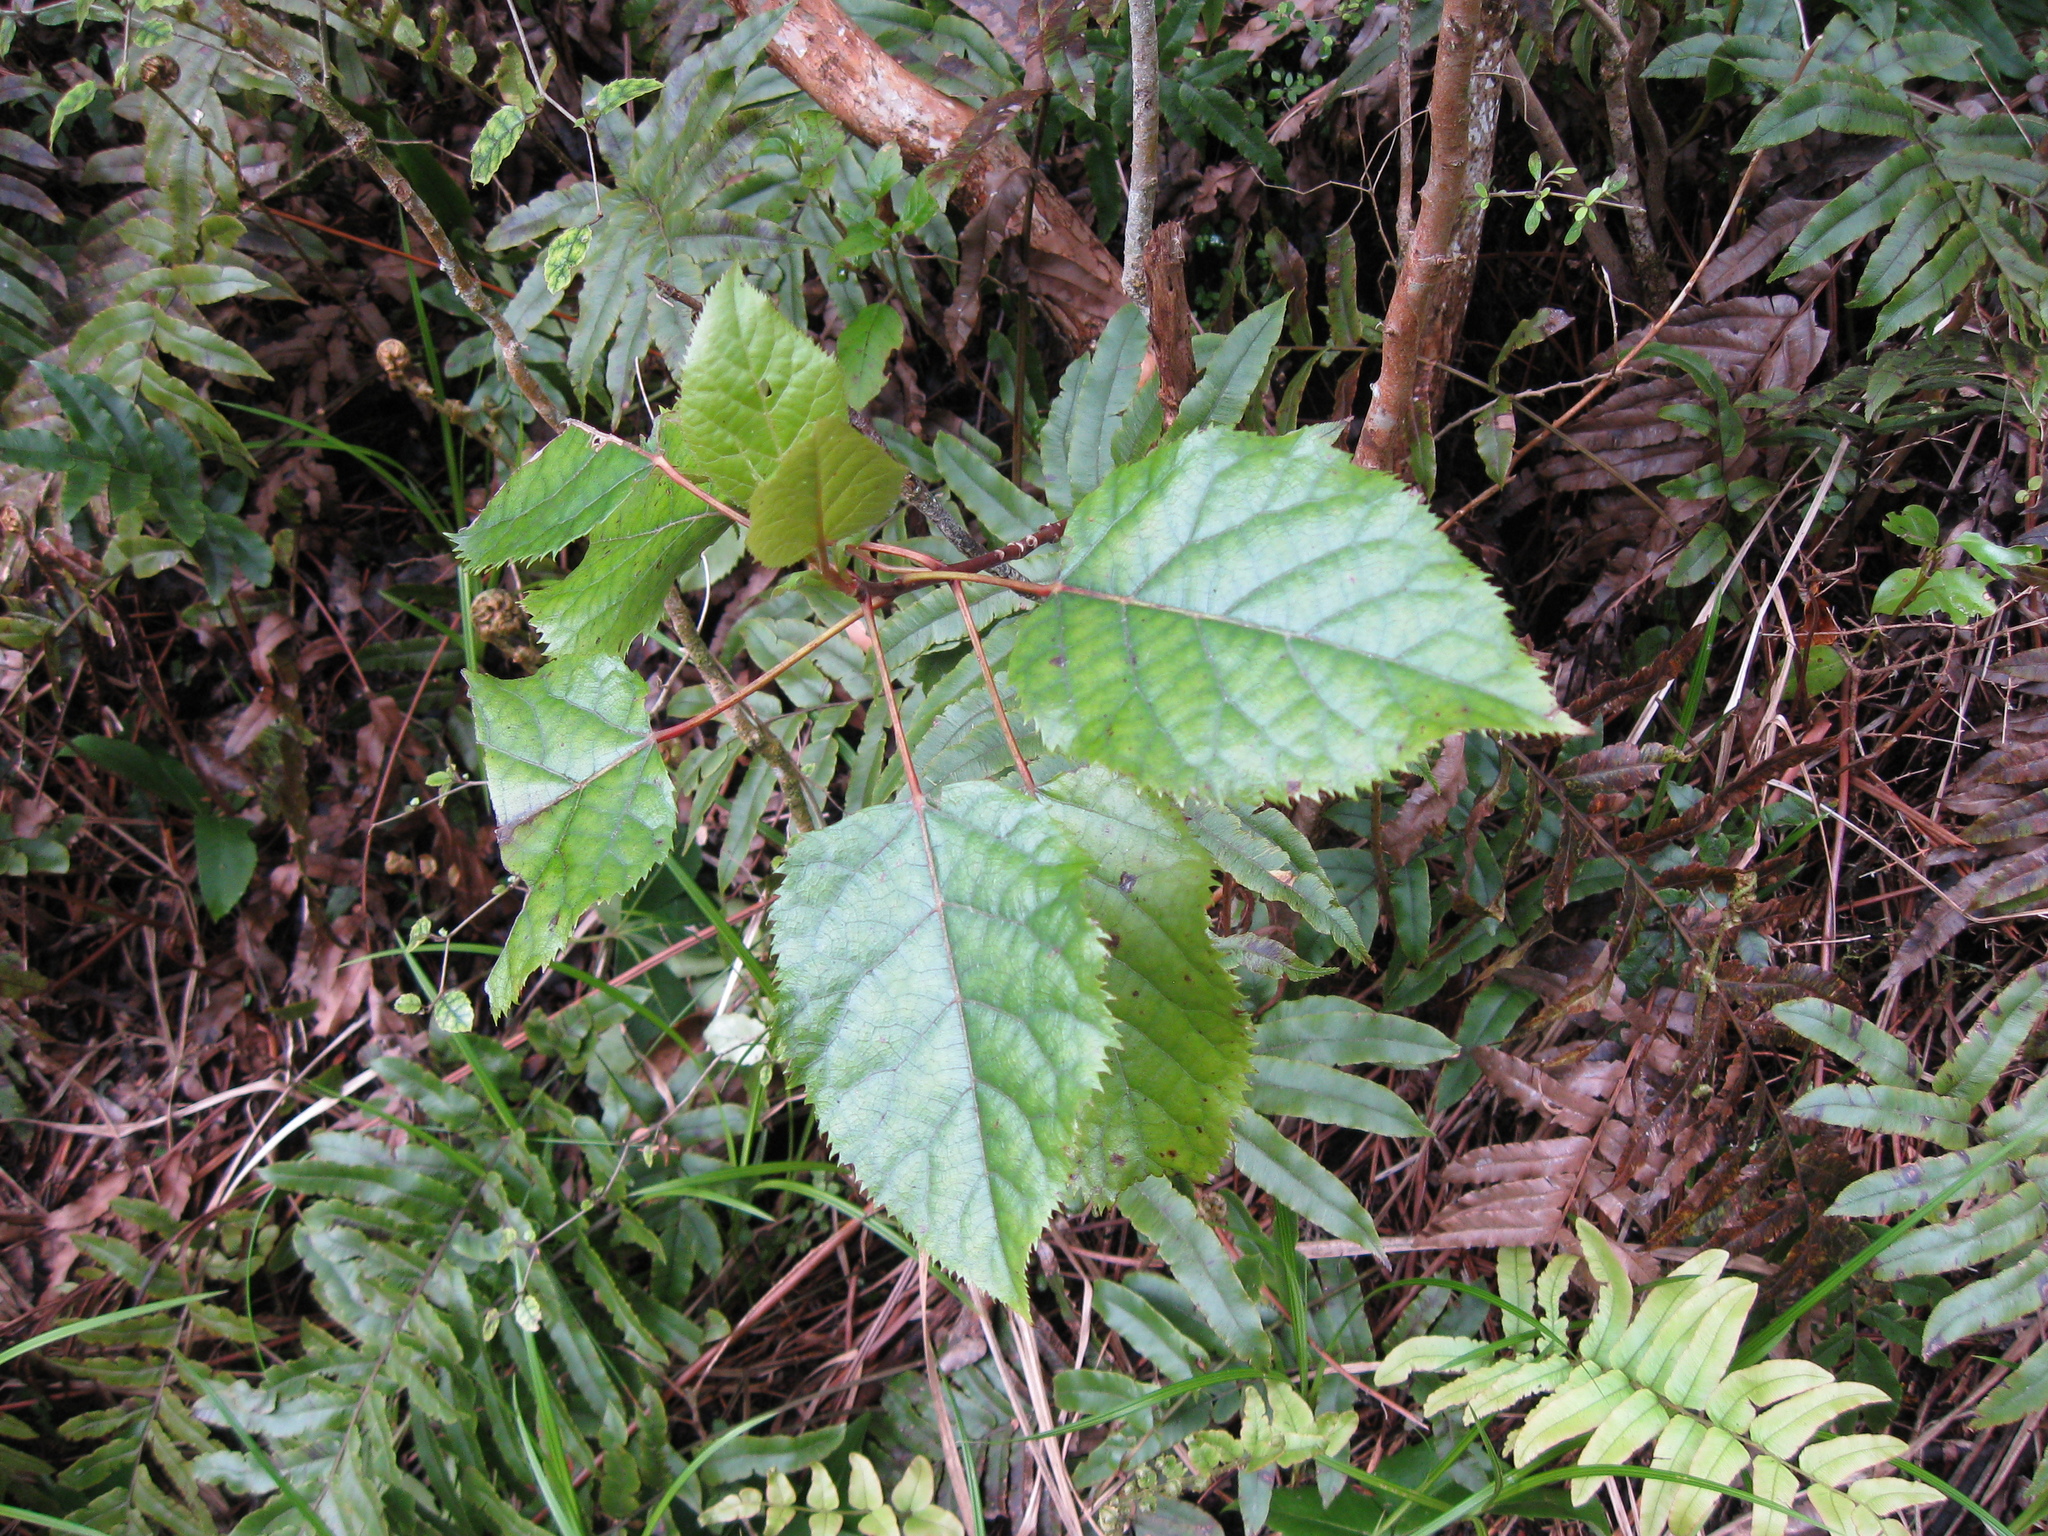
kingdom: Plantae
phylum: Tracheophyta
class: Magnoliopsida
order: Oxalidales
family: Elaeocarpaceae
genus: Aristotelia
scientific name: Aristotelia serrata
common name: New zealand wineberry
